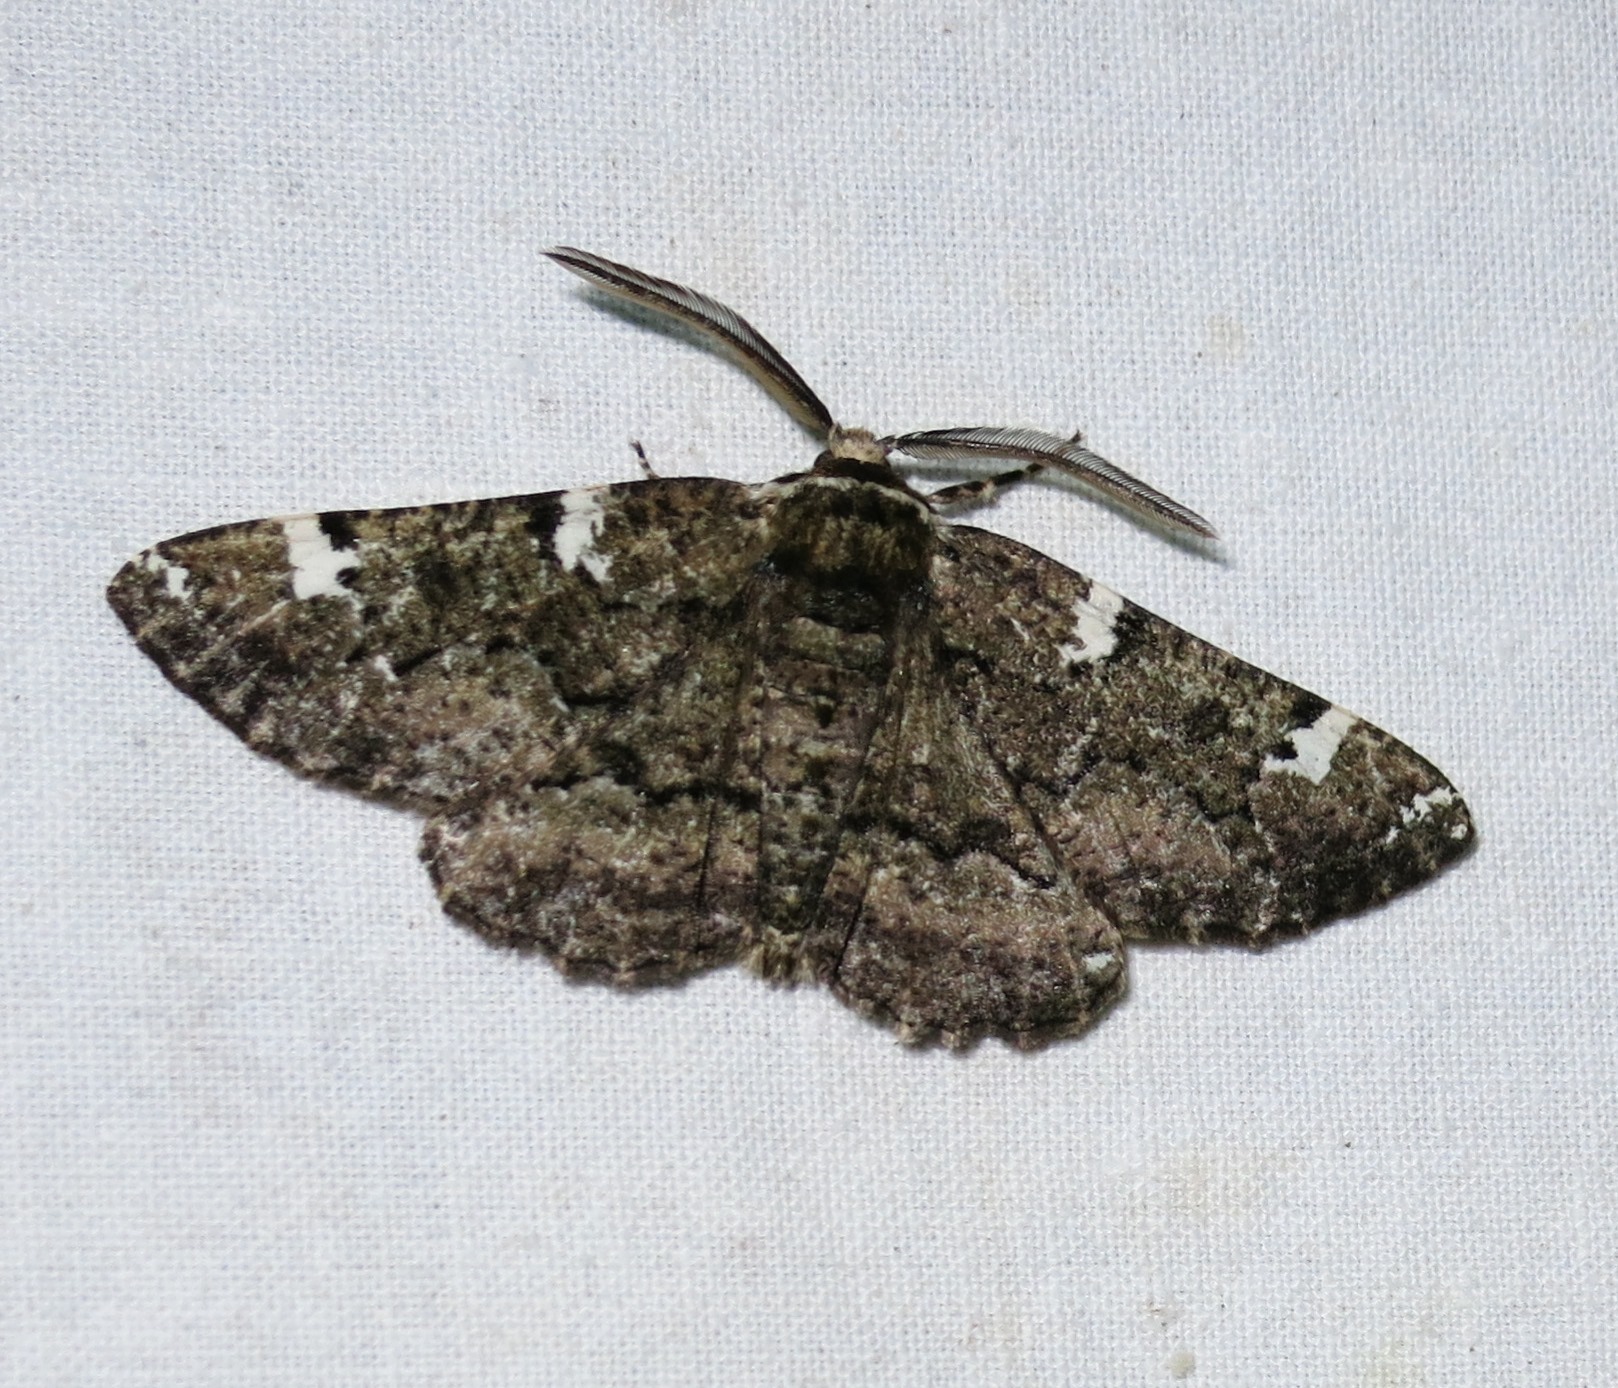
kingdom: Animalia
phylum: Arthropoda
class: Insecta
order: Lepidoptera
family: Geometridae
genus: Phaeoura
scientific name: Phaeoura quernaria
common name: Oak beauty
